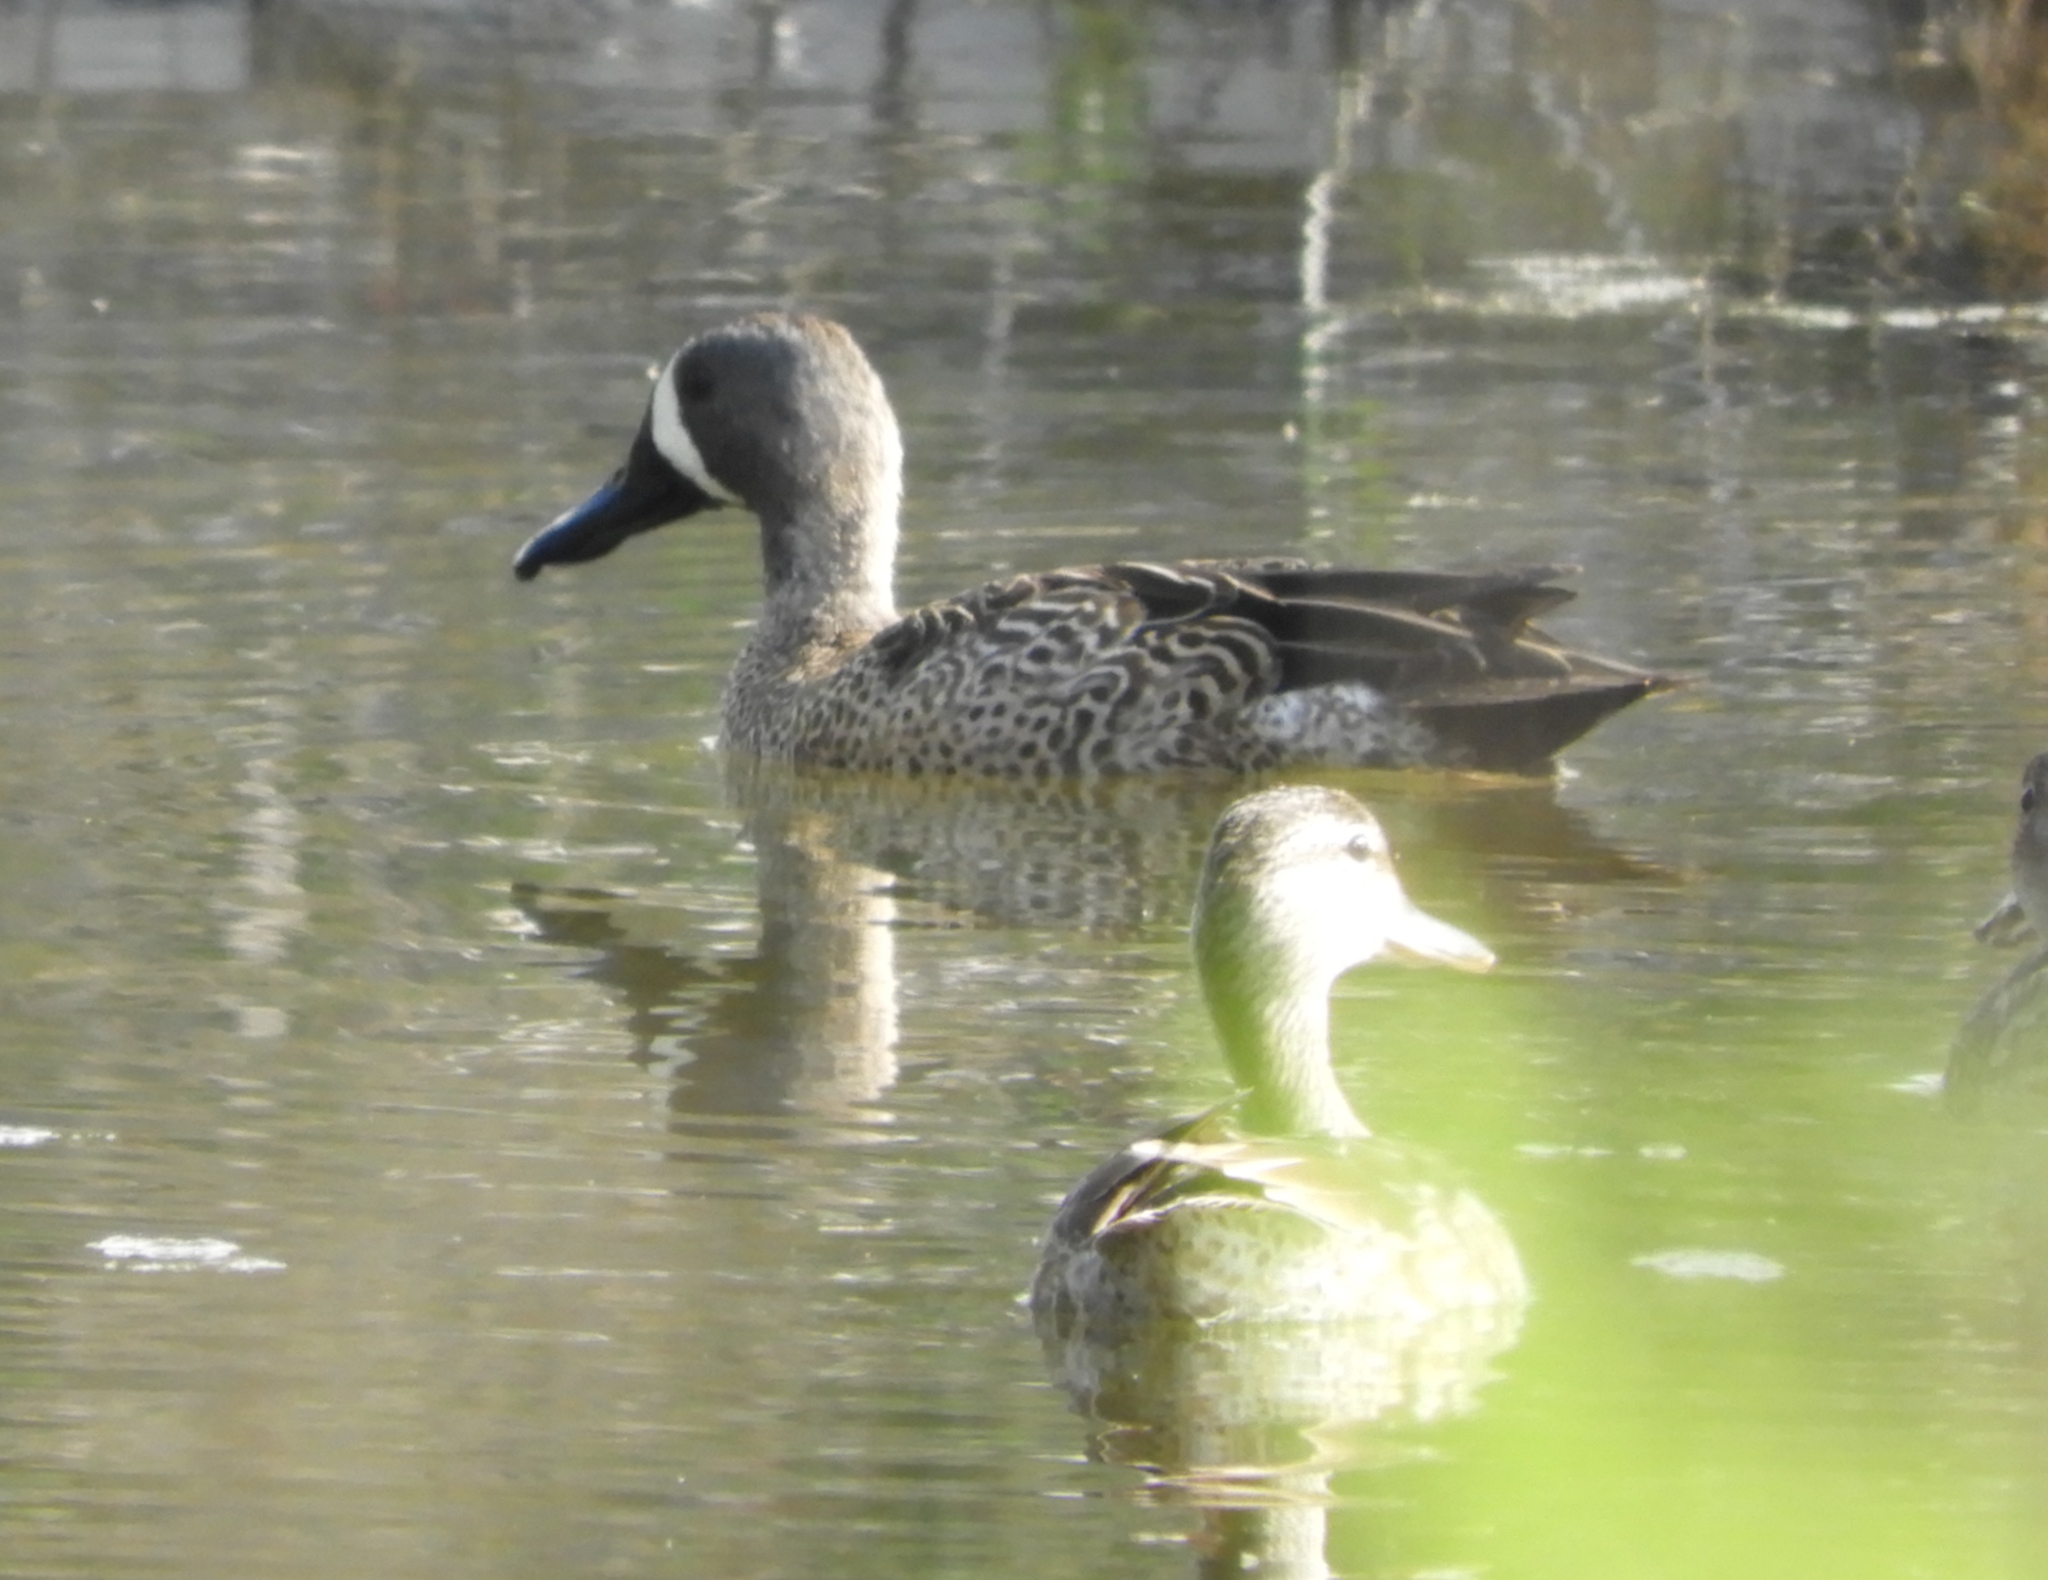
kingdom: Animalia
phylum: Chordata
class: Aves
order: Anseriformes
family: Anatidae
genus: Spatula
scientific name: Spatula discors
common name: Blue-winged teal
